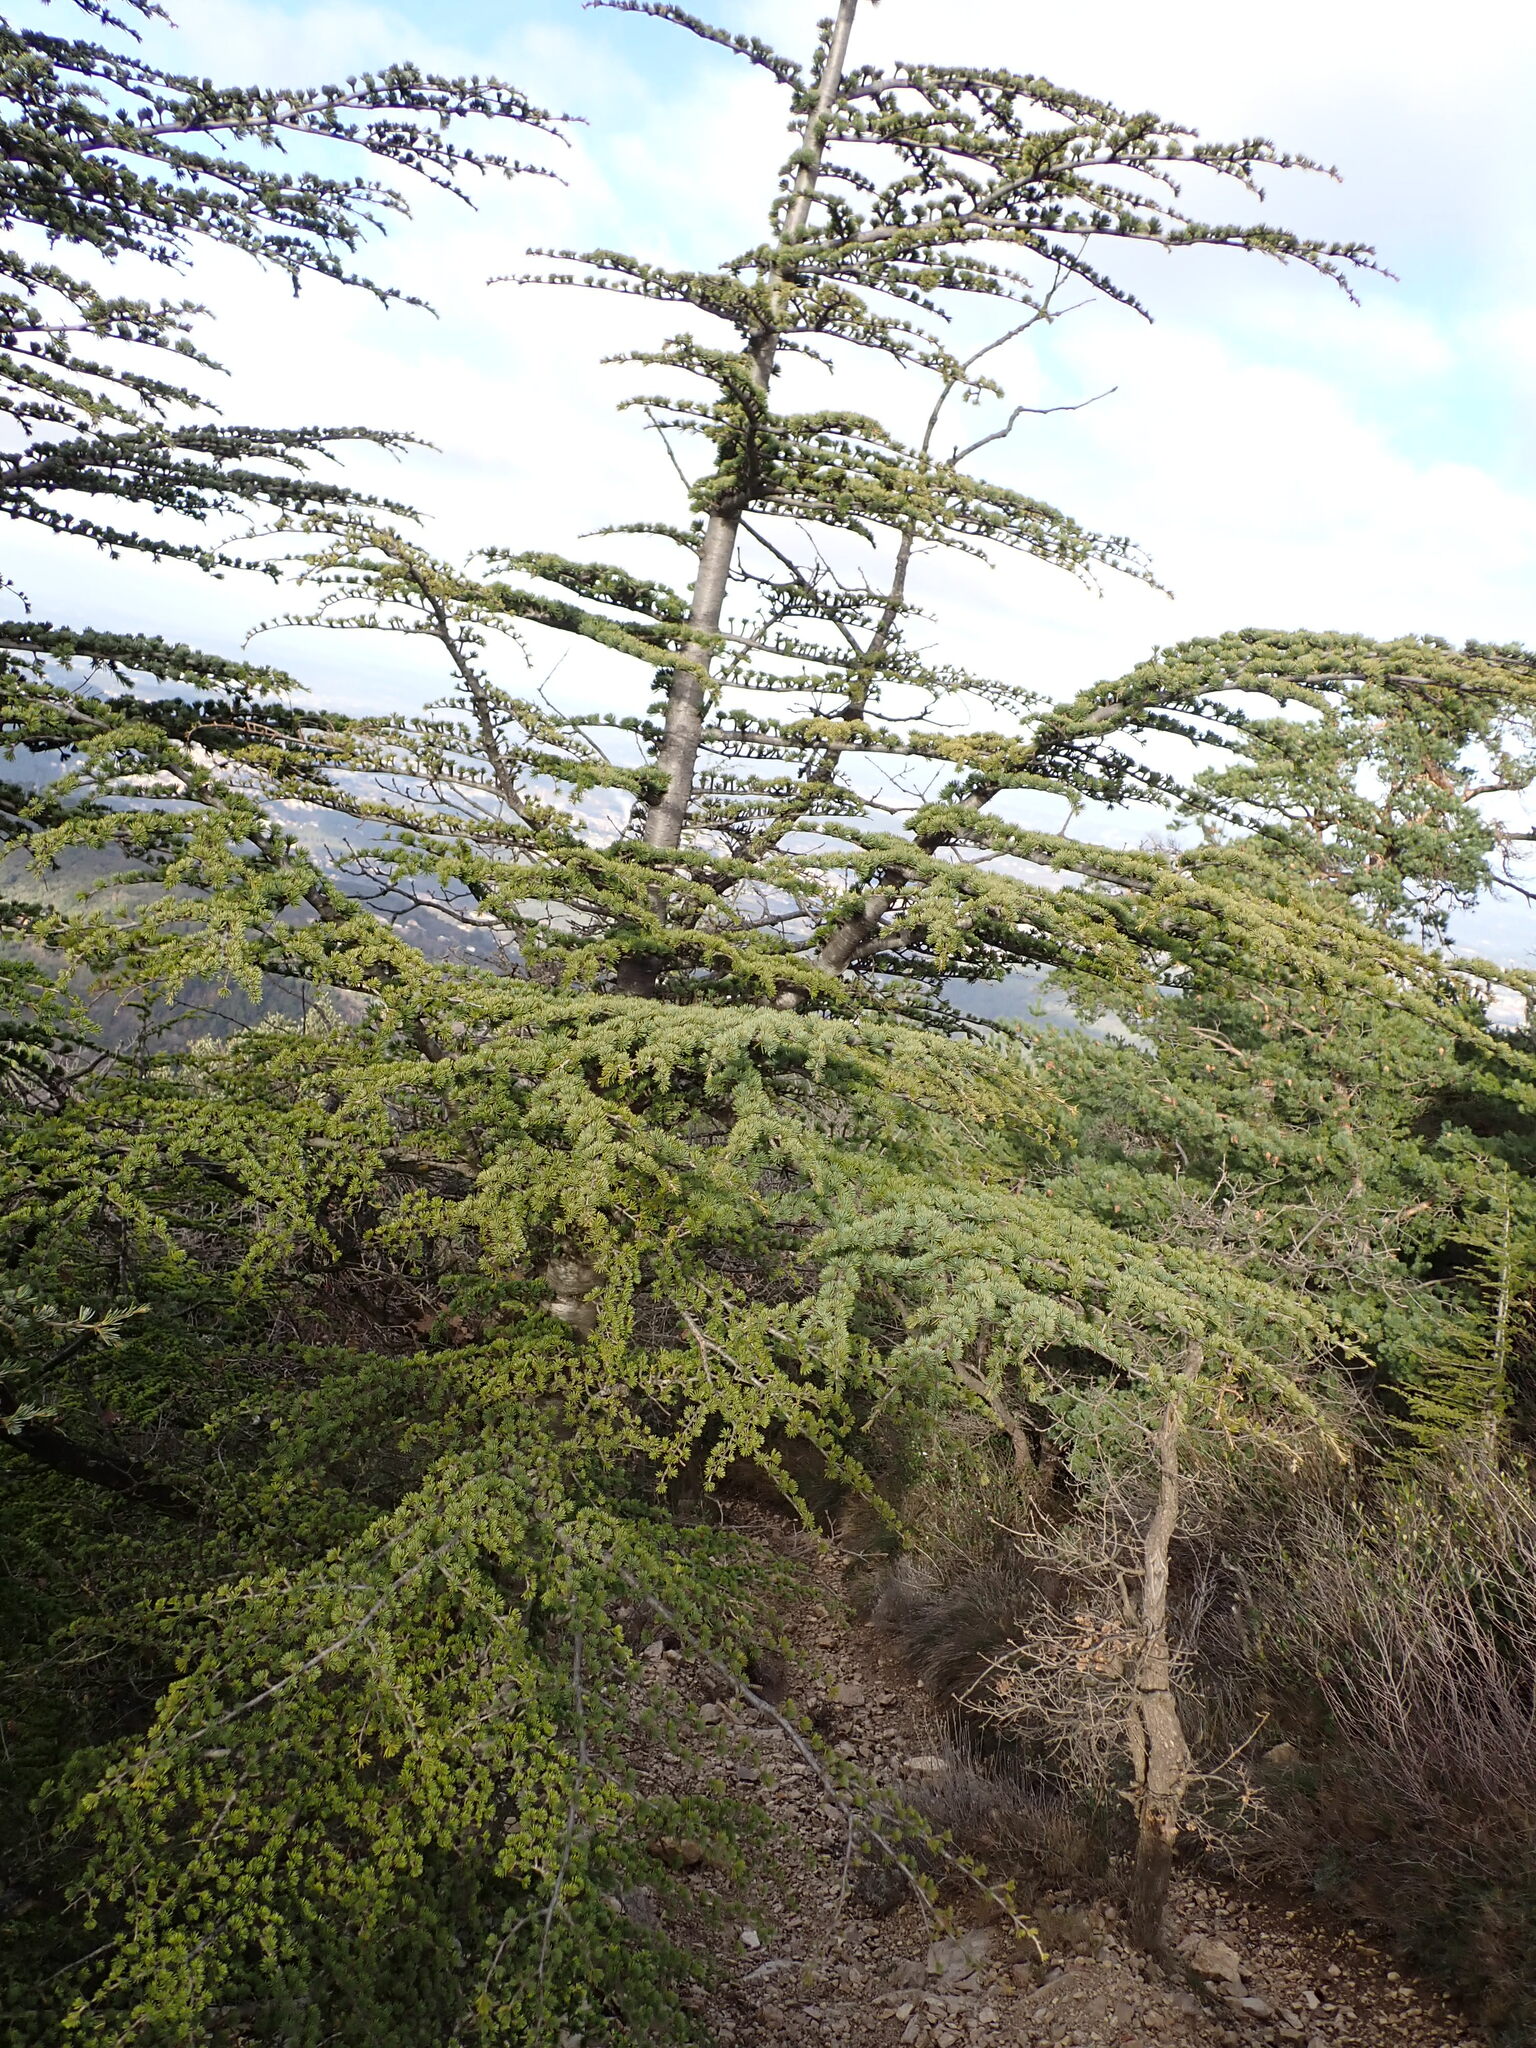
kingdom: Plantae
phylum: Tracheophyta
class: Pinopsida
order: Pinales
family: Pinaceae
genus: Cedrus
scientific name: Cedrus atlantica
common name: Atlas cedar
